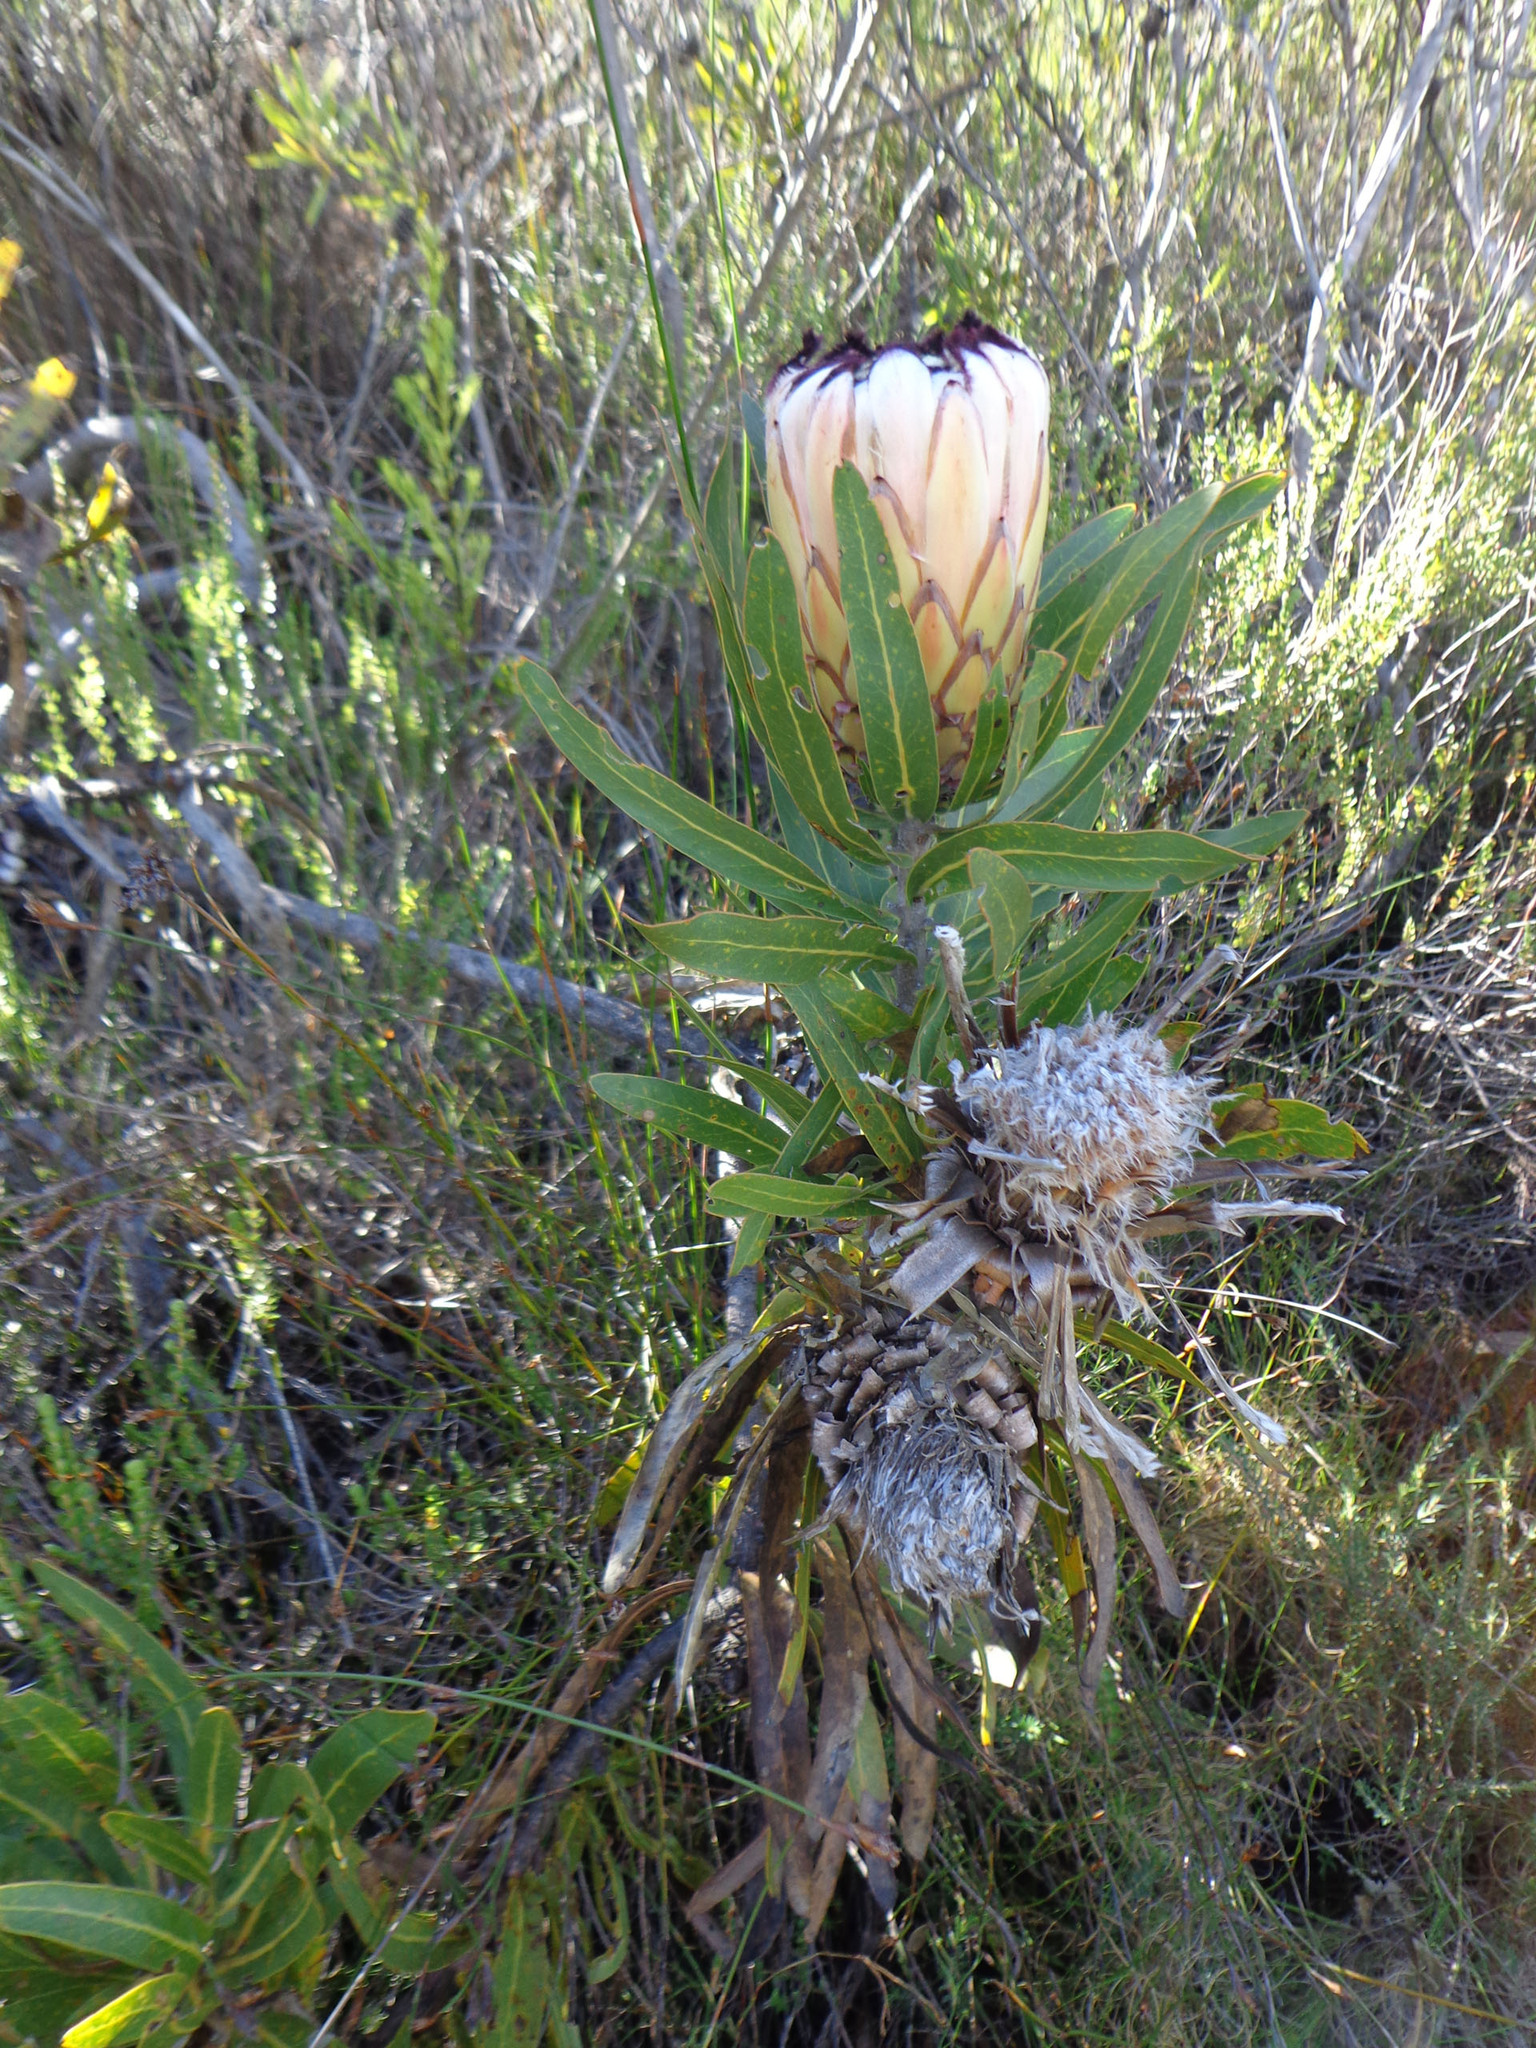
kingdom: Plantae
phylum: Tracheophyta
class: Magnoliopsida
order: Proteales
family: Proteaceae
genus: Protea
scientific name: Protea neriifolia
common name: Blue sugarbush
